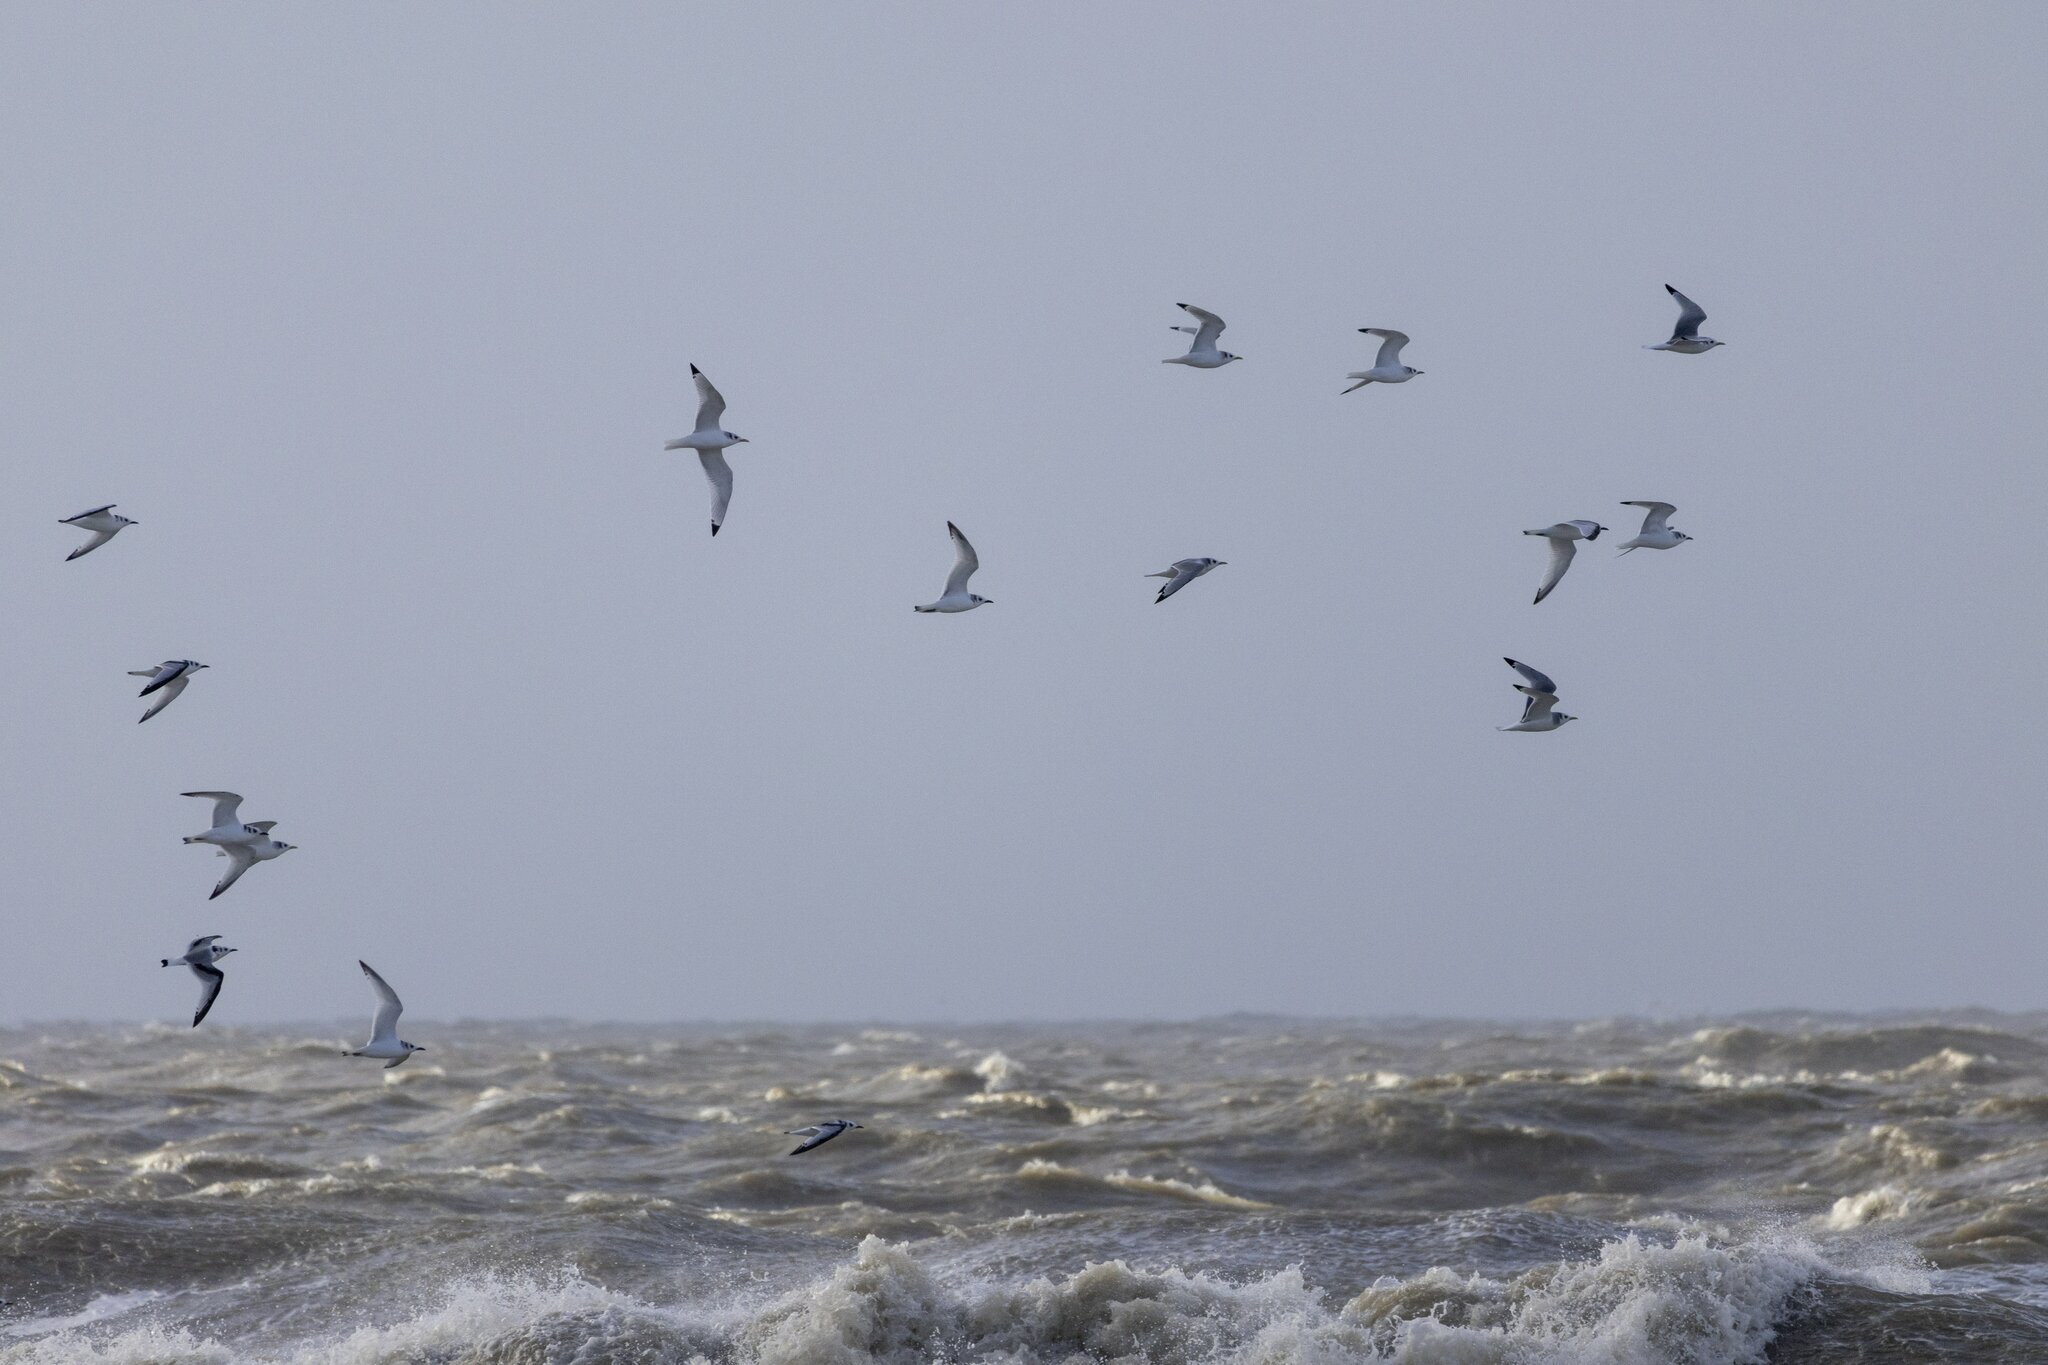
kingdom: Animalia
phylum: Chordata
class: Aves
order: Charadriiformes
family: Laridae
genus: Rissa
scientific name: Rissa tridactyla
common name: Black-legged kittiwake
